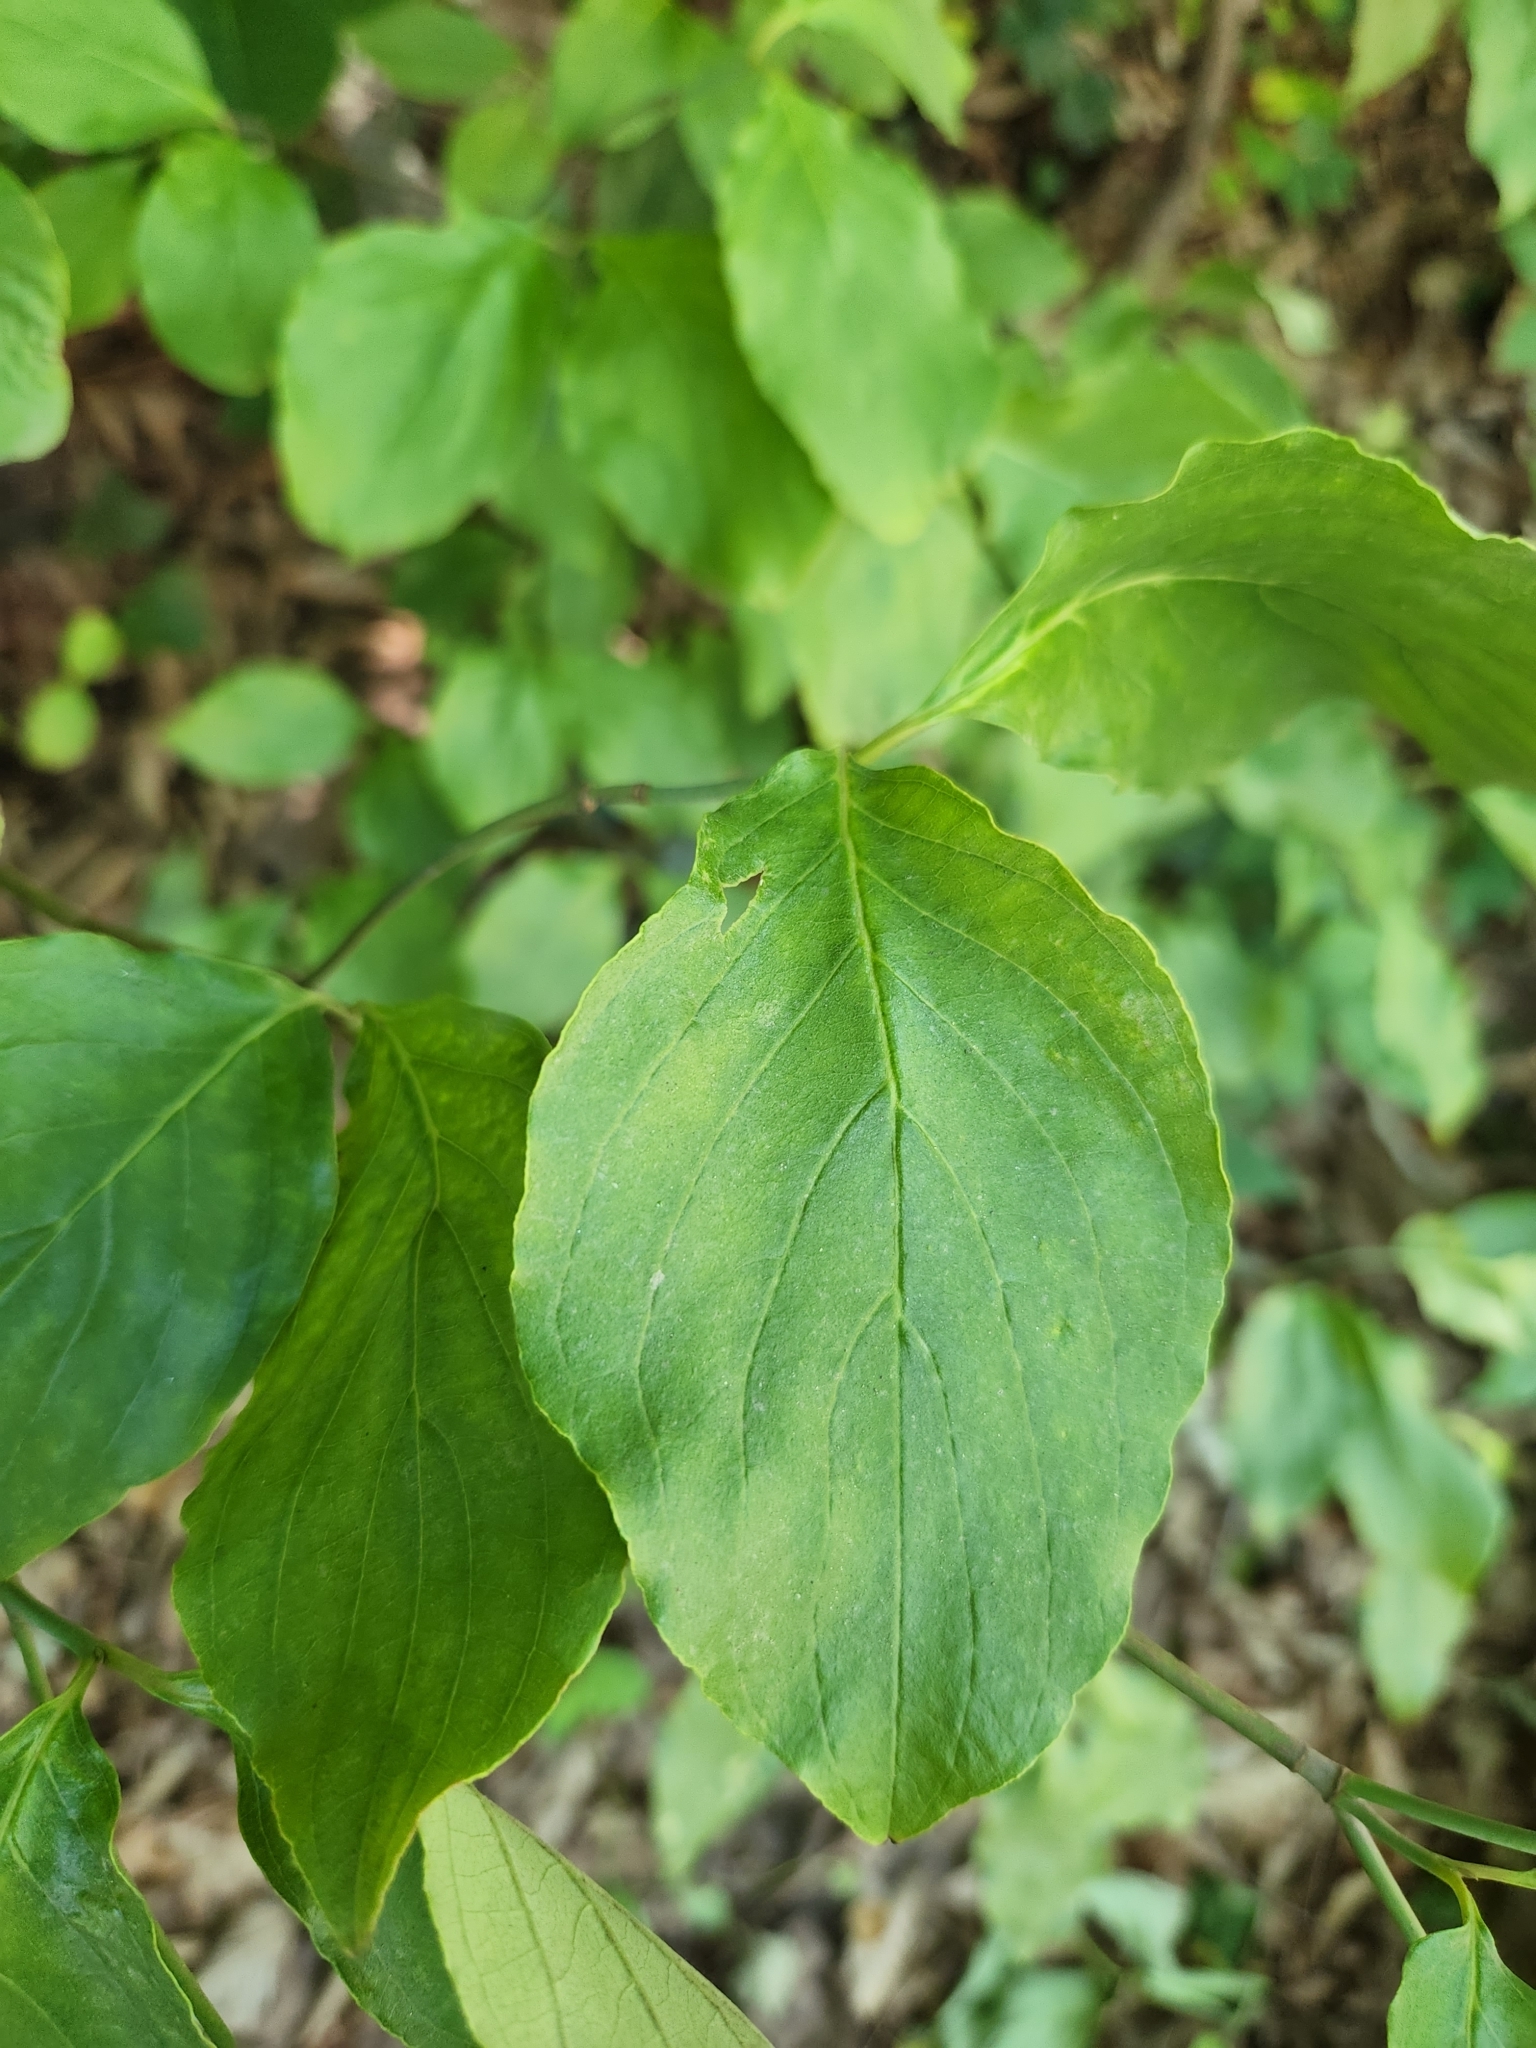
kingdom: Plantae
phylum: Tracheophyta
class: Magnoliopsida
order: Cornales
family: Cornaceae
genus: Cornus
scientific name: Cornus florida
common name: Flowering dogwood
